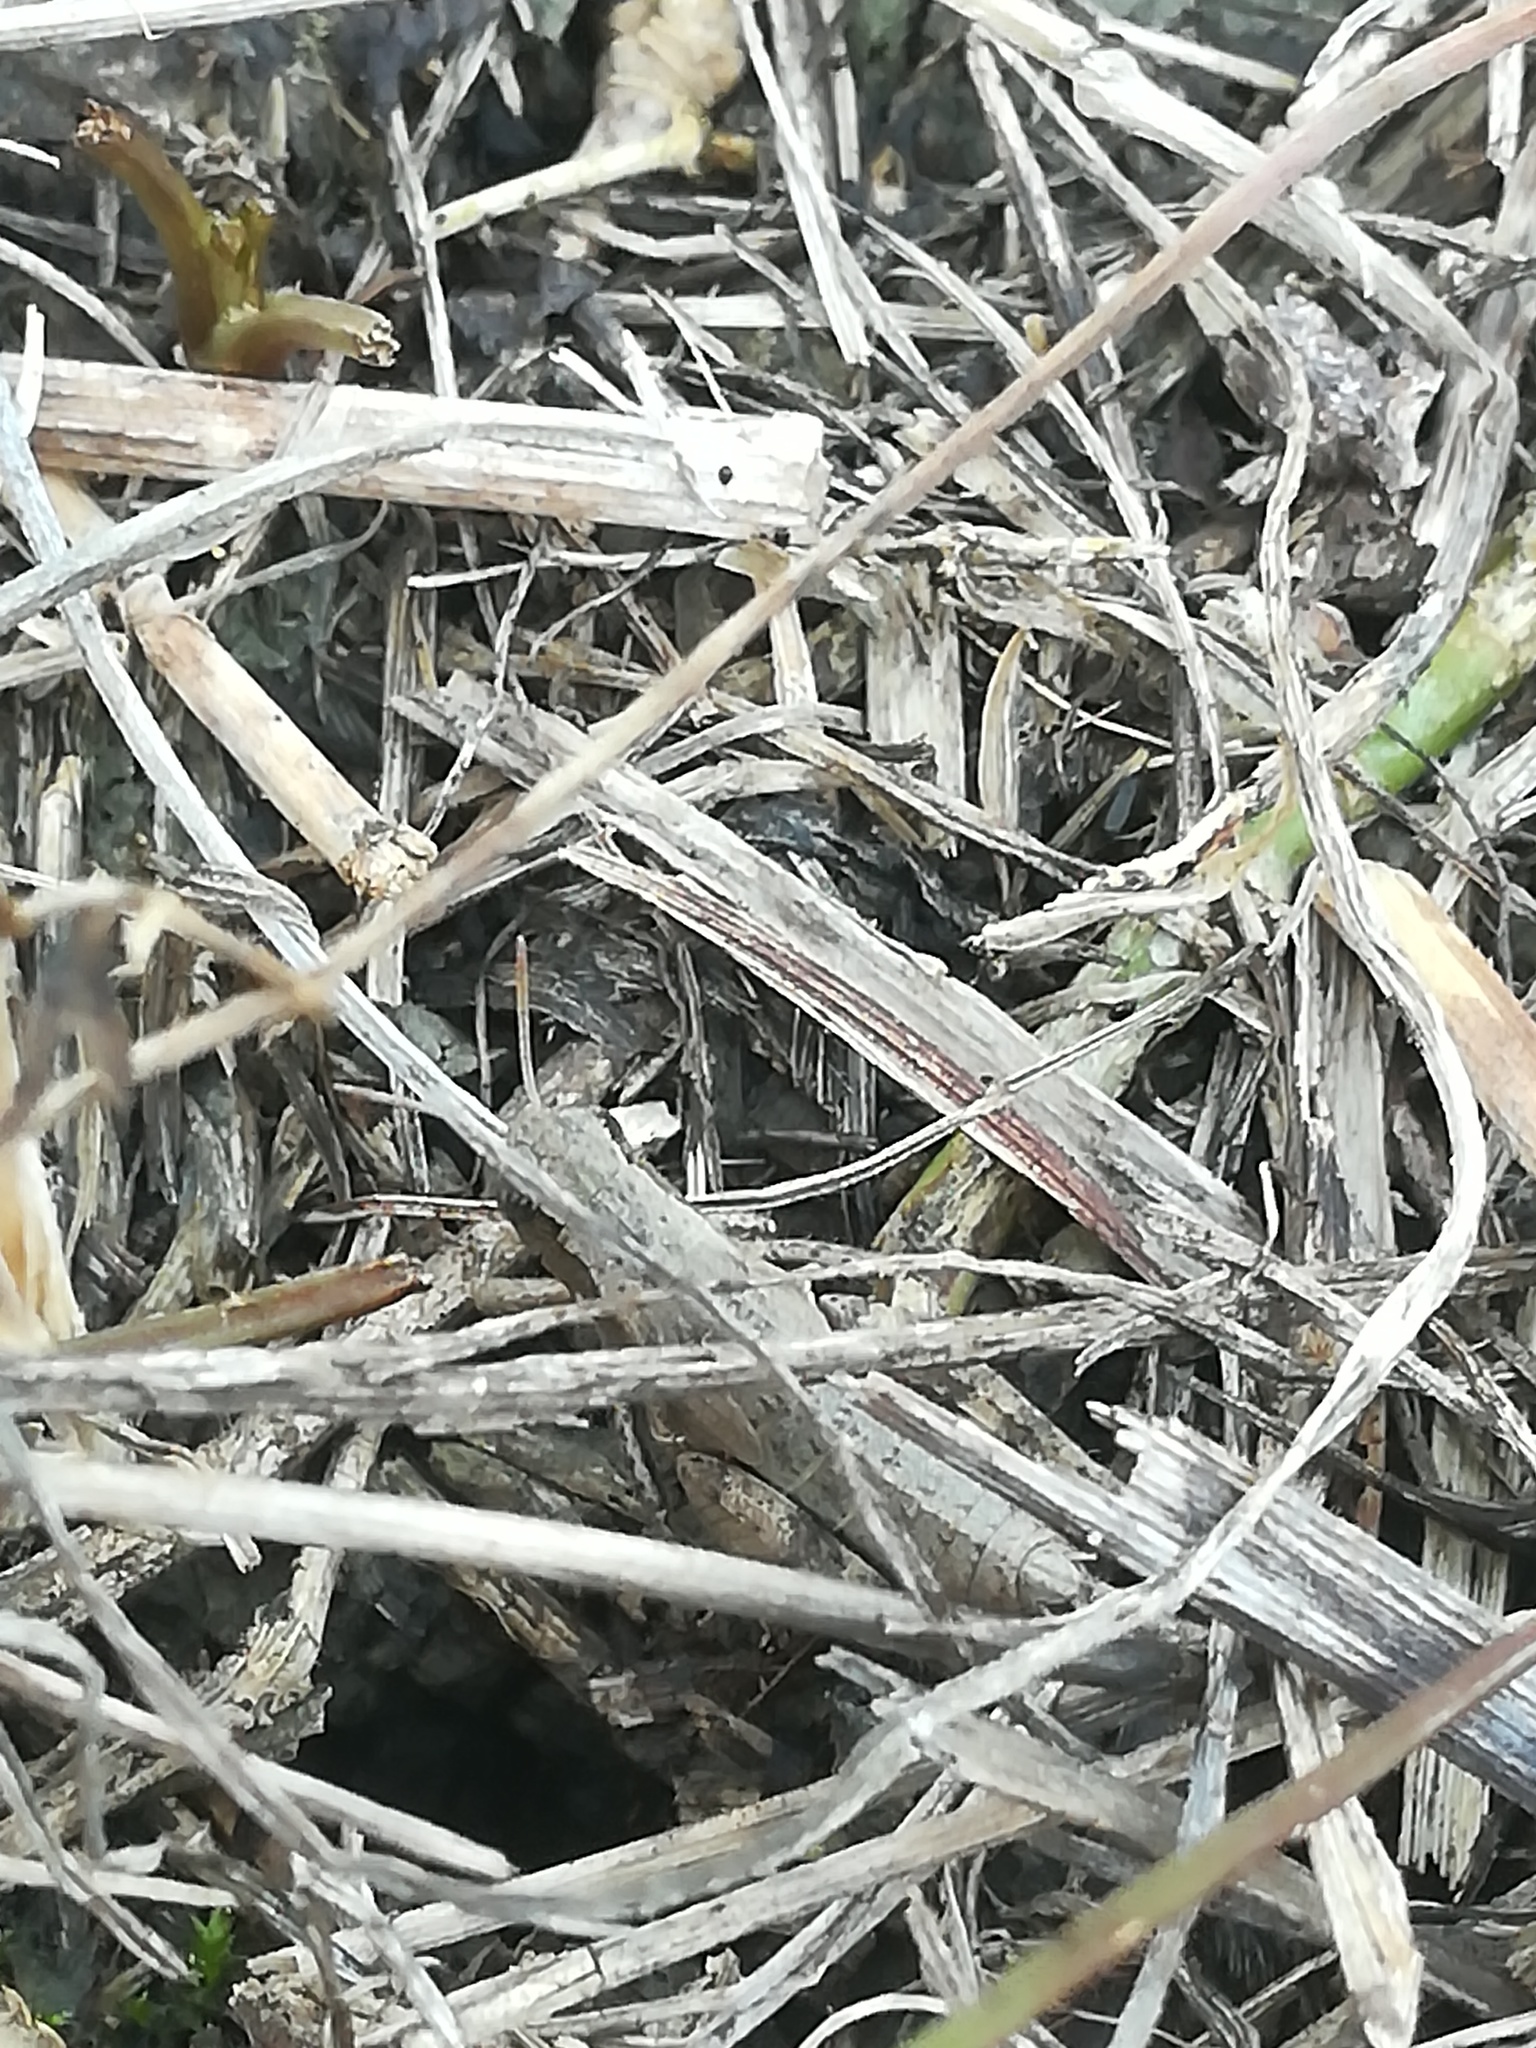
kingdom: Animalia
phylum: Arthropoda
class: Insecta
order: Orthoptera
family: Acrididae
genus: Pezotettix
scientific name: Pezotettix giornae
